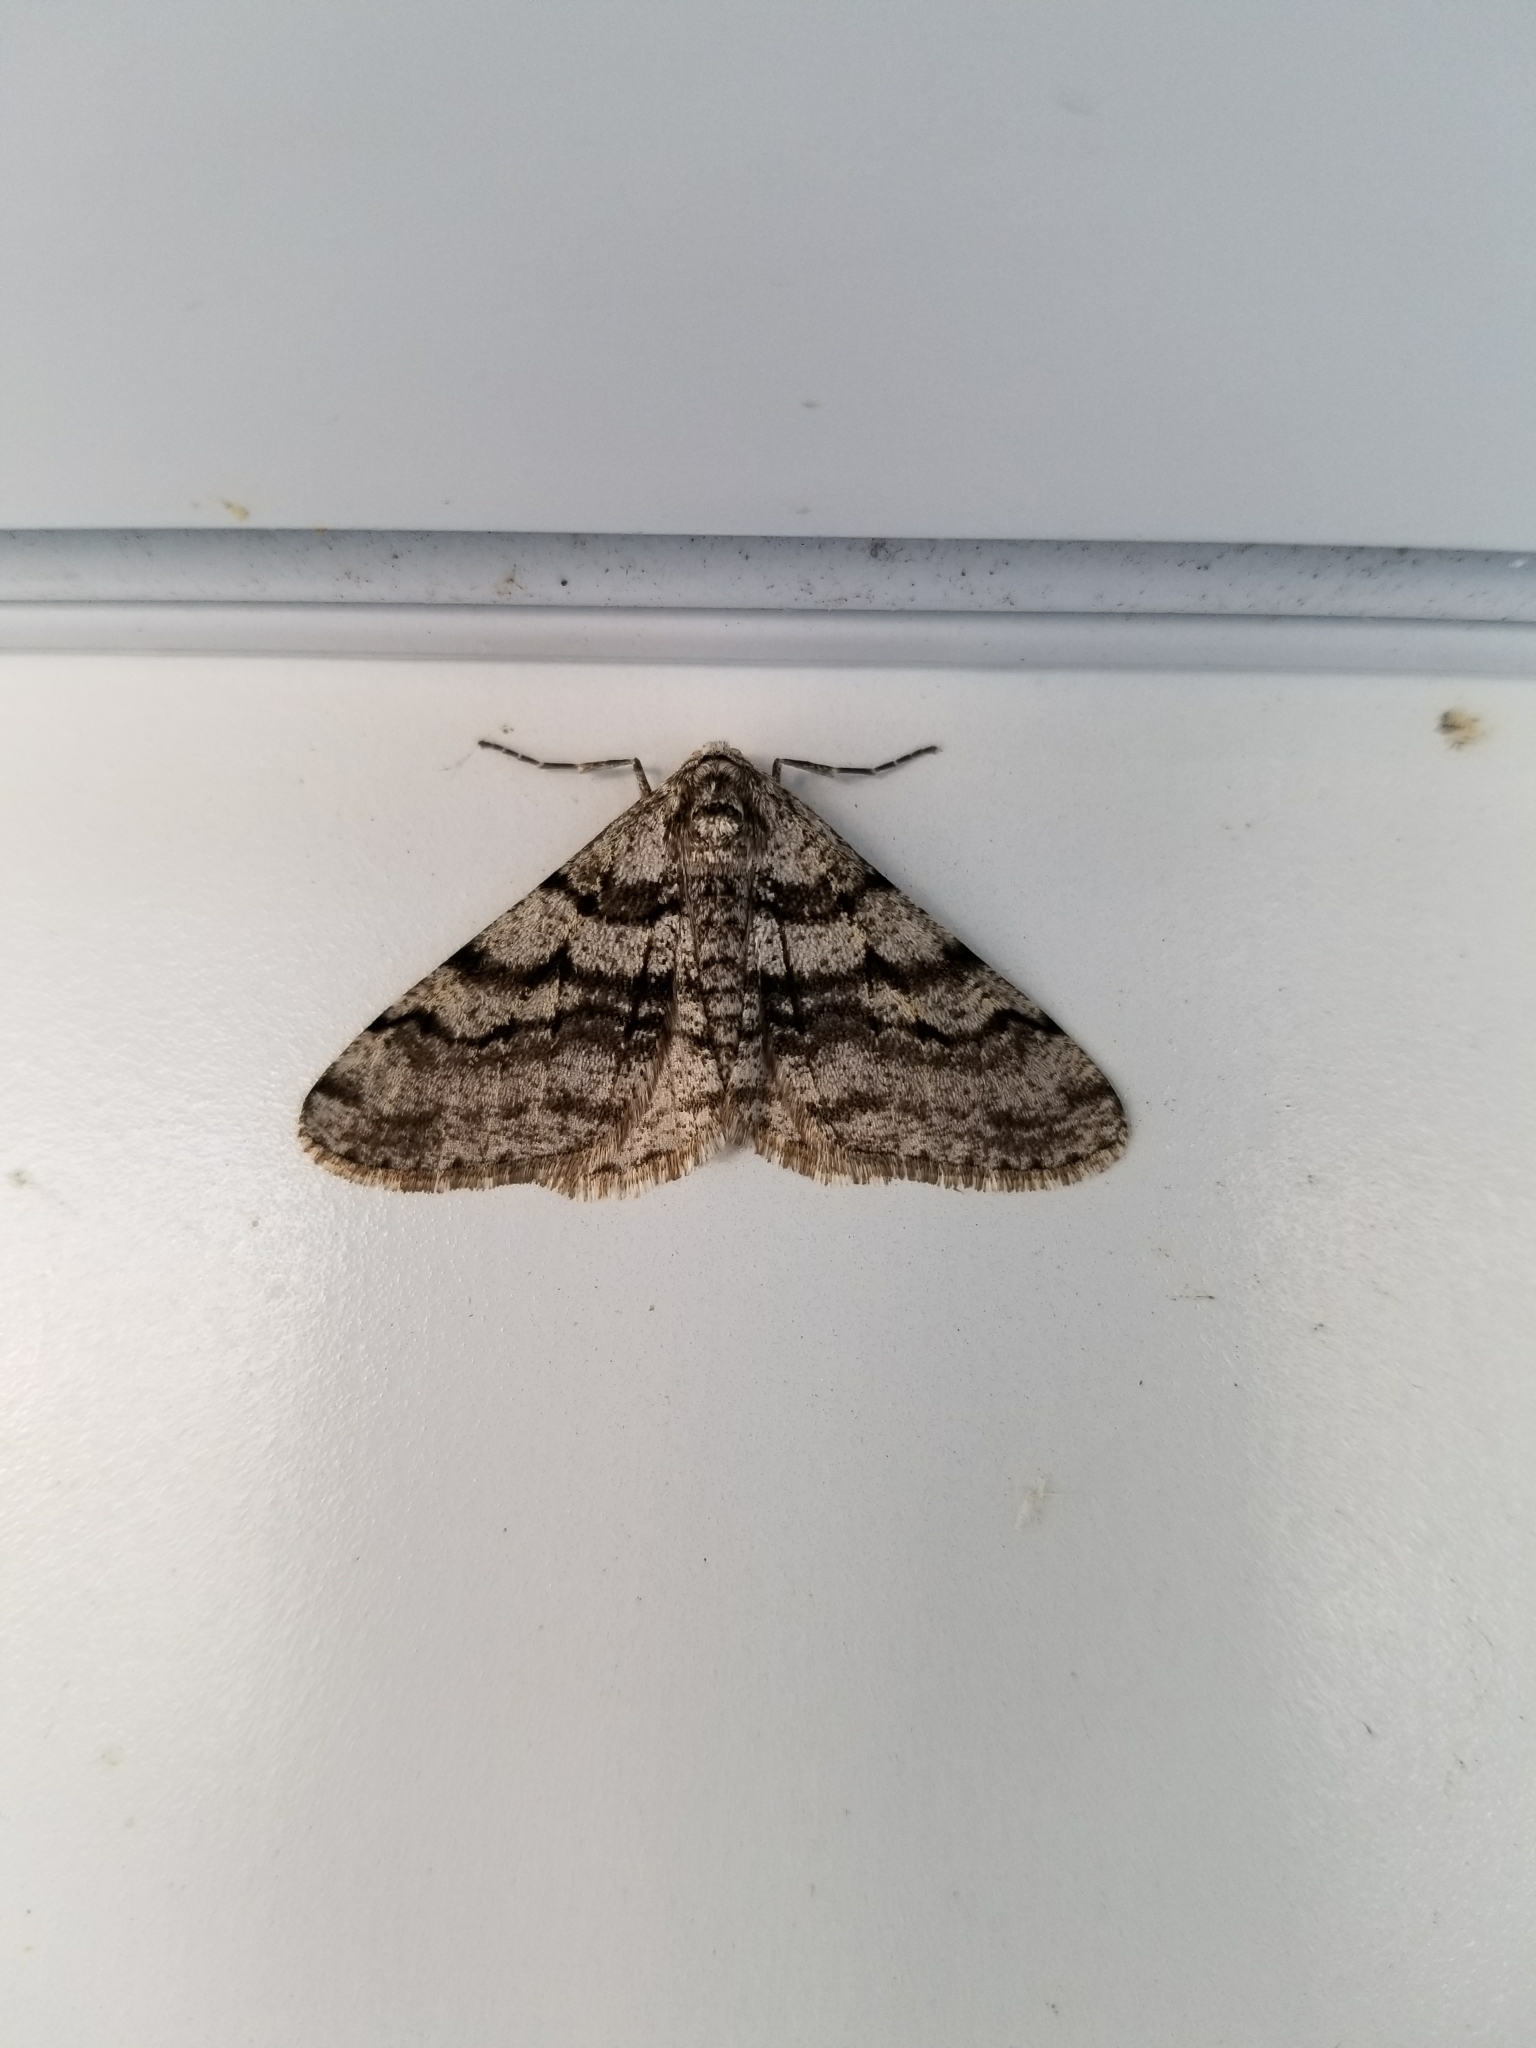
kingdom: Animalia
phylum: Arthropoda
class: Insecta
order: Lepidoptera
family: Geometridae
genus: Phigalia
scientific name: Phigalia titea
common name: Spiny looper
